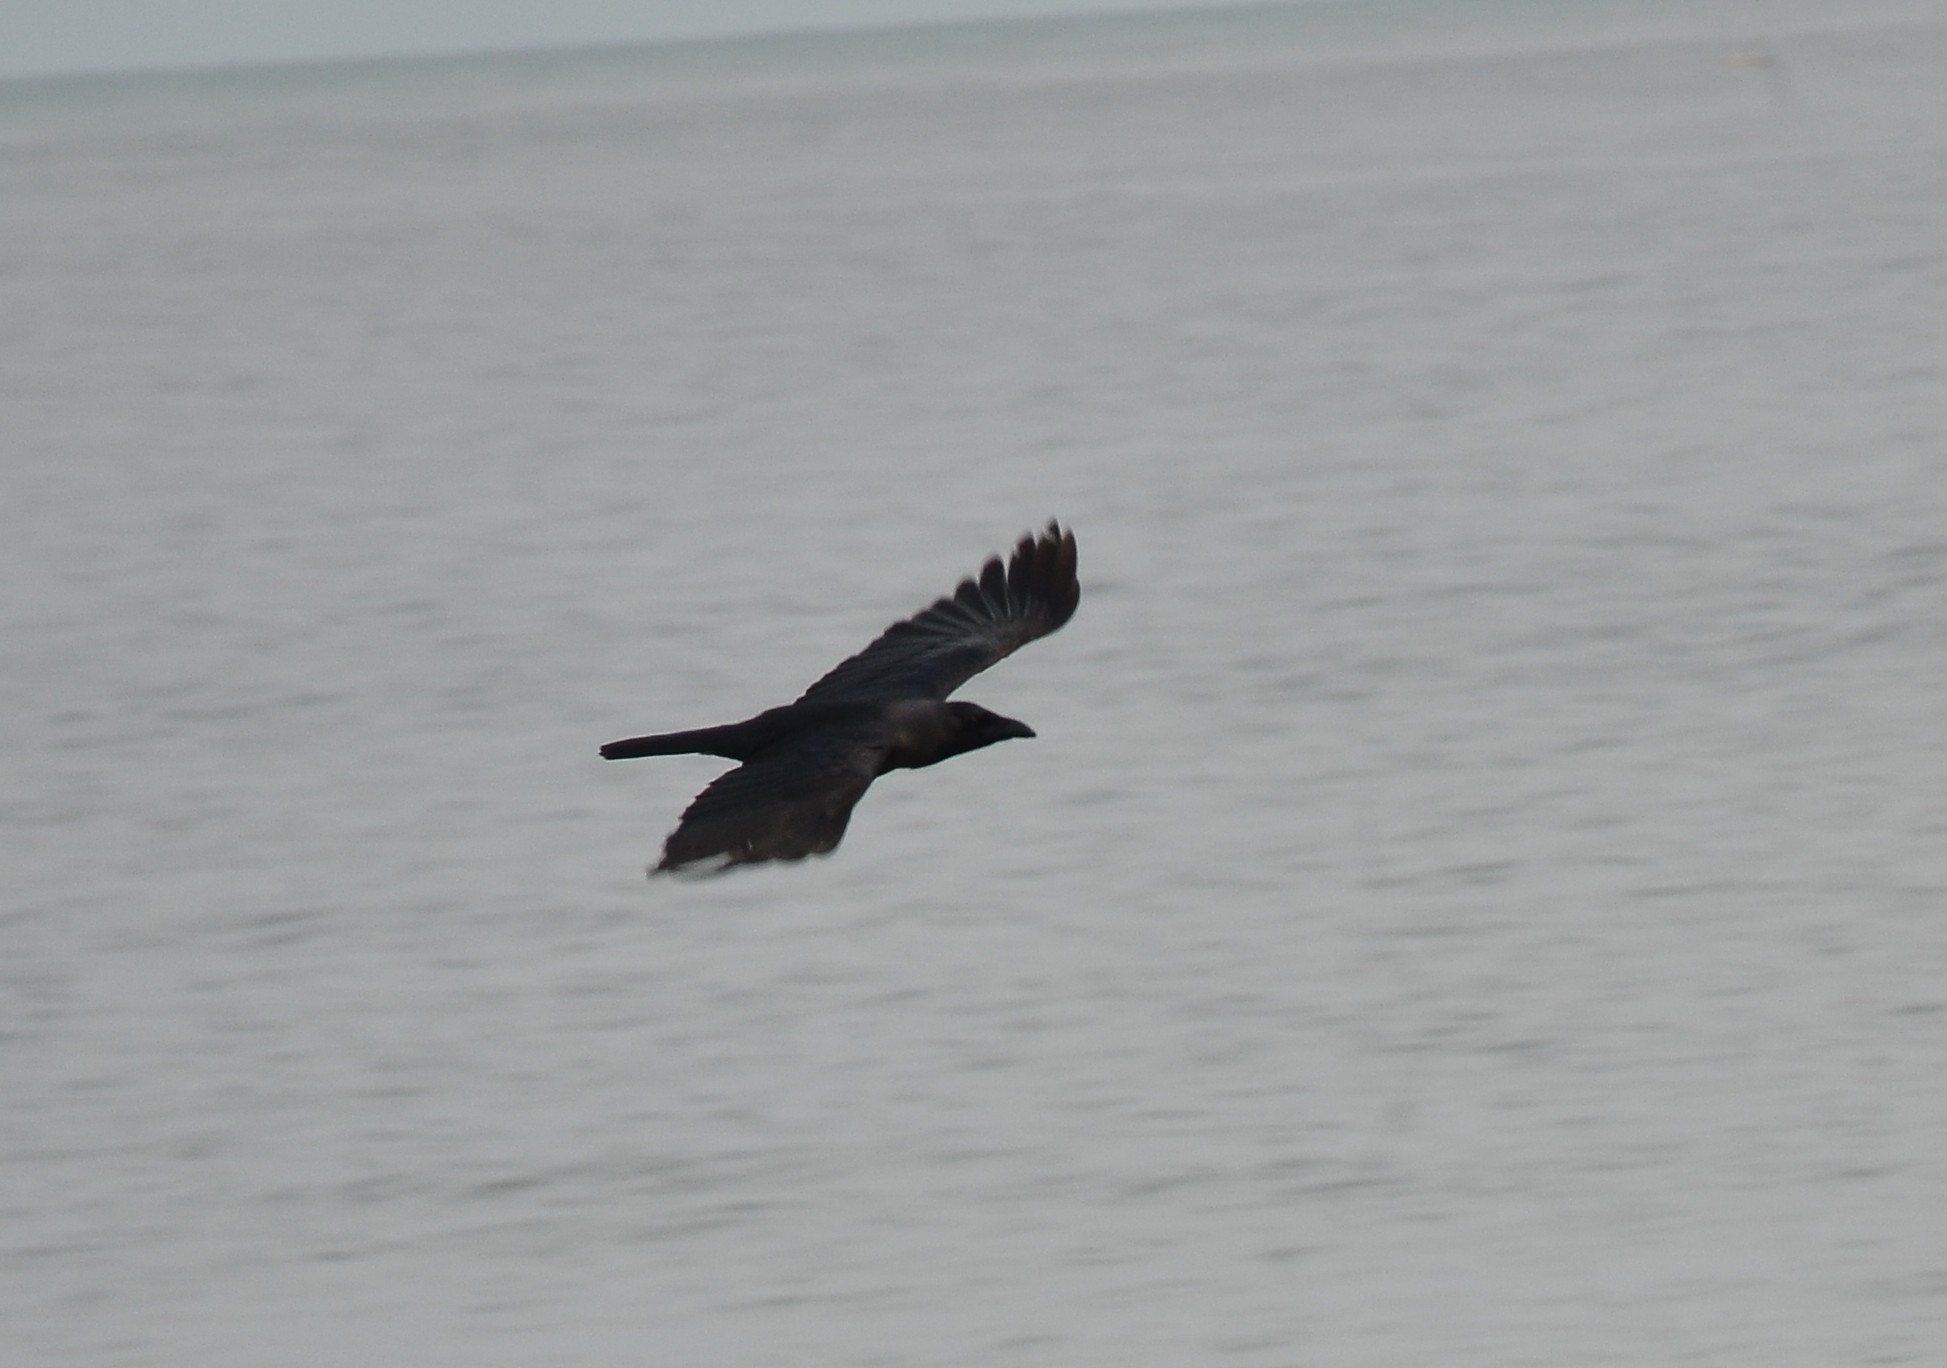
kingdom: Animalia
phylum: Chordata
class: Aves
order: Passeriformes
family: Corvidae
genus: Corvus
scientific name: Corvus splendens
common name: House crow
